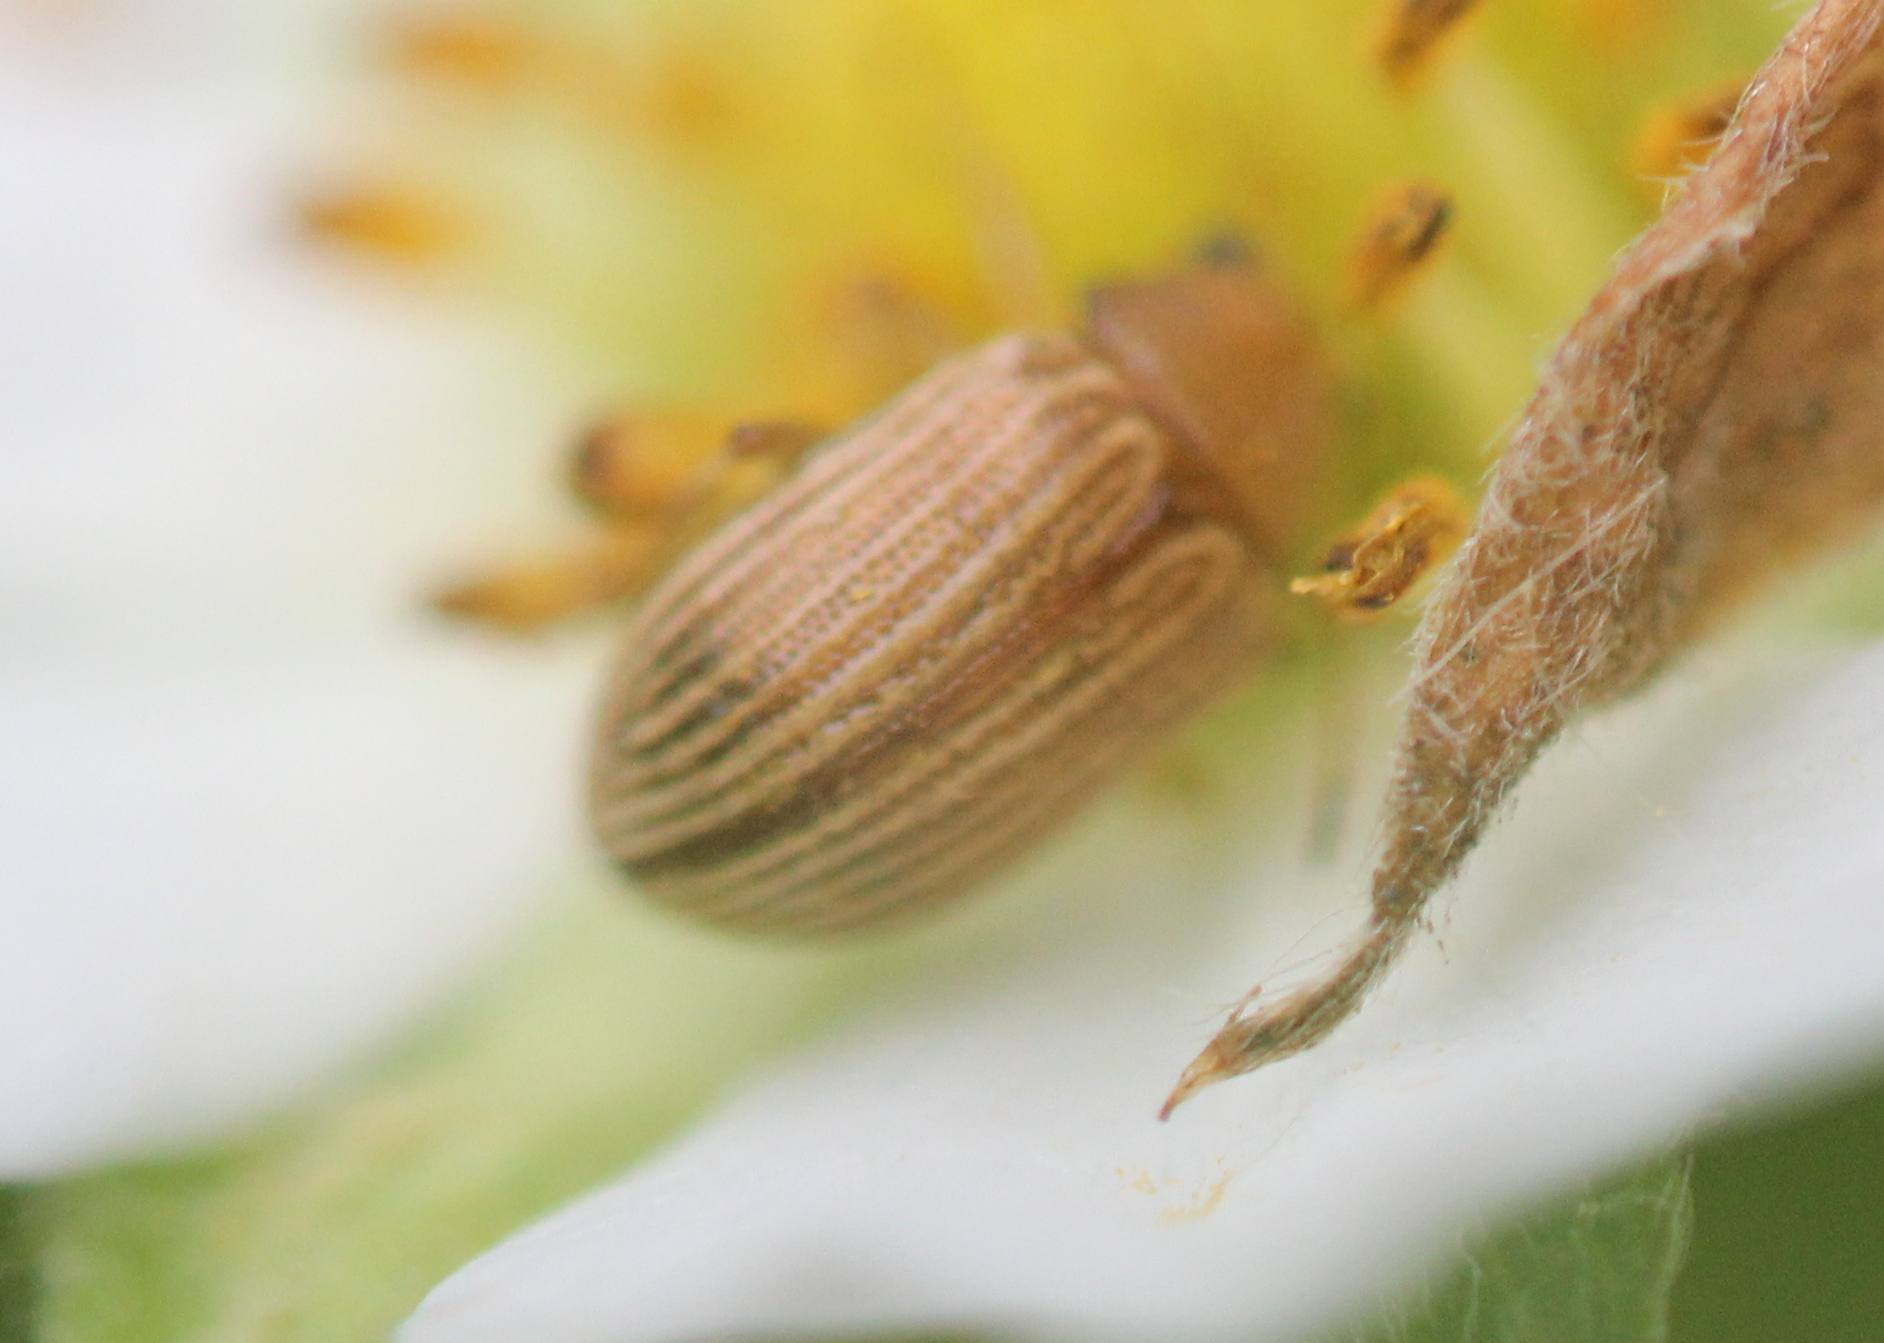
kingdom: Animalia
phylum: Arthropoda
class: Insecta
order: Coleoptera
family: Chrysomelidae
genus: Colaspis
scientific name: Colaspis brunnea
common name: Grape colaspis
